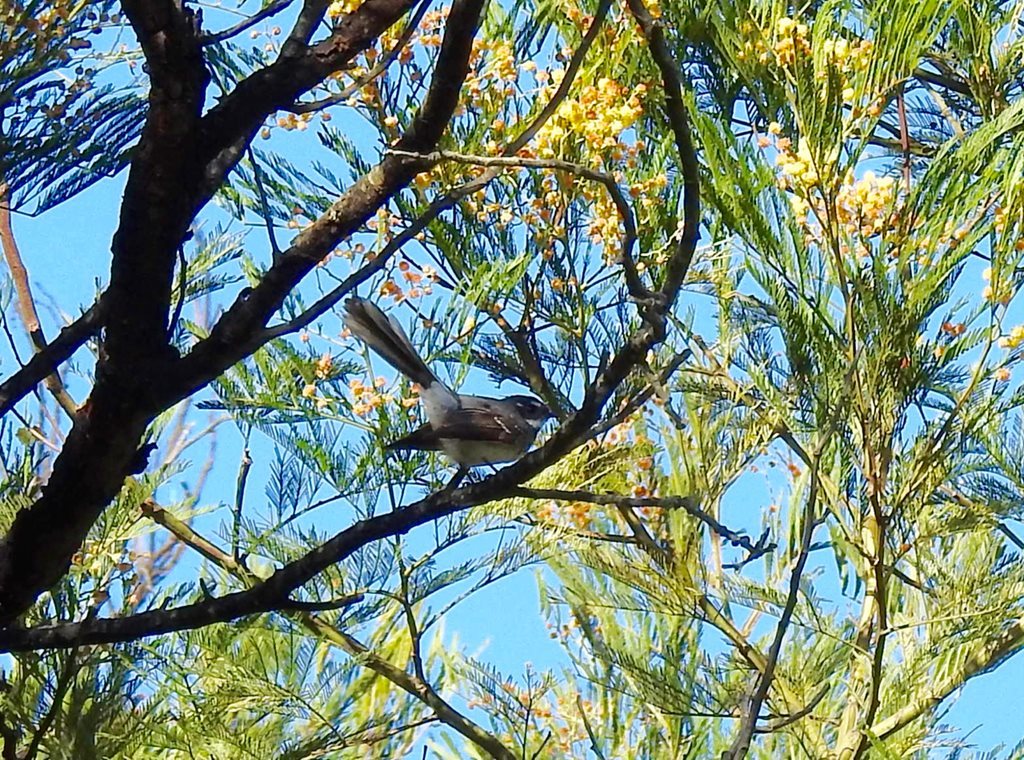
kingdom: Animalia
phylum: Chordata
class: Aves
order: Passeriformes
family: Rhipiduridae
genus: Rhipidura
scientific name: Rhipidura albiscapa
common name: Grey fantail
